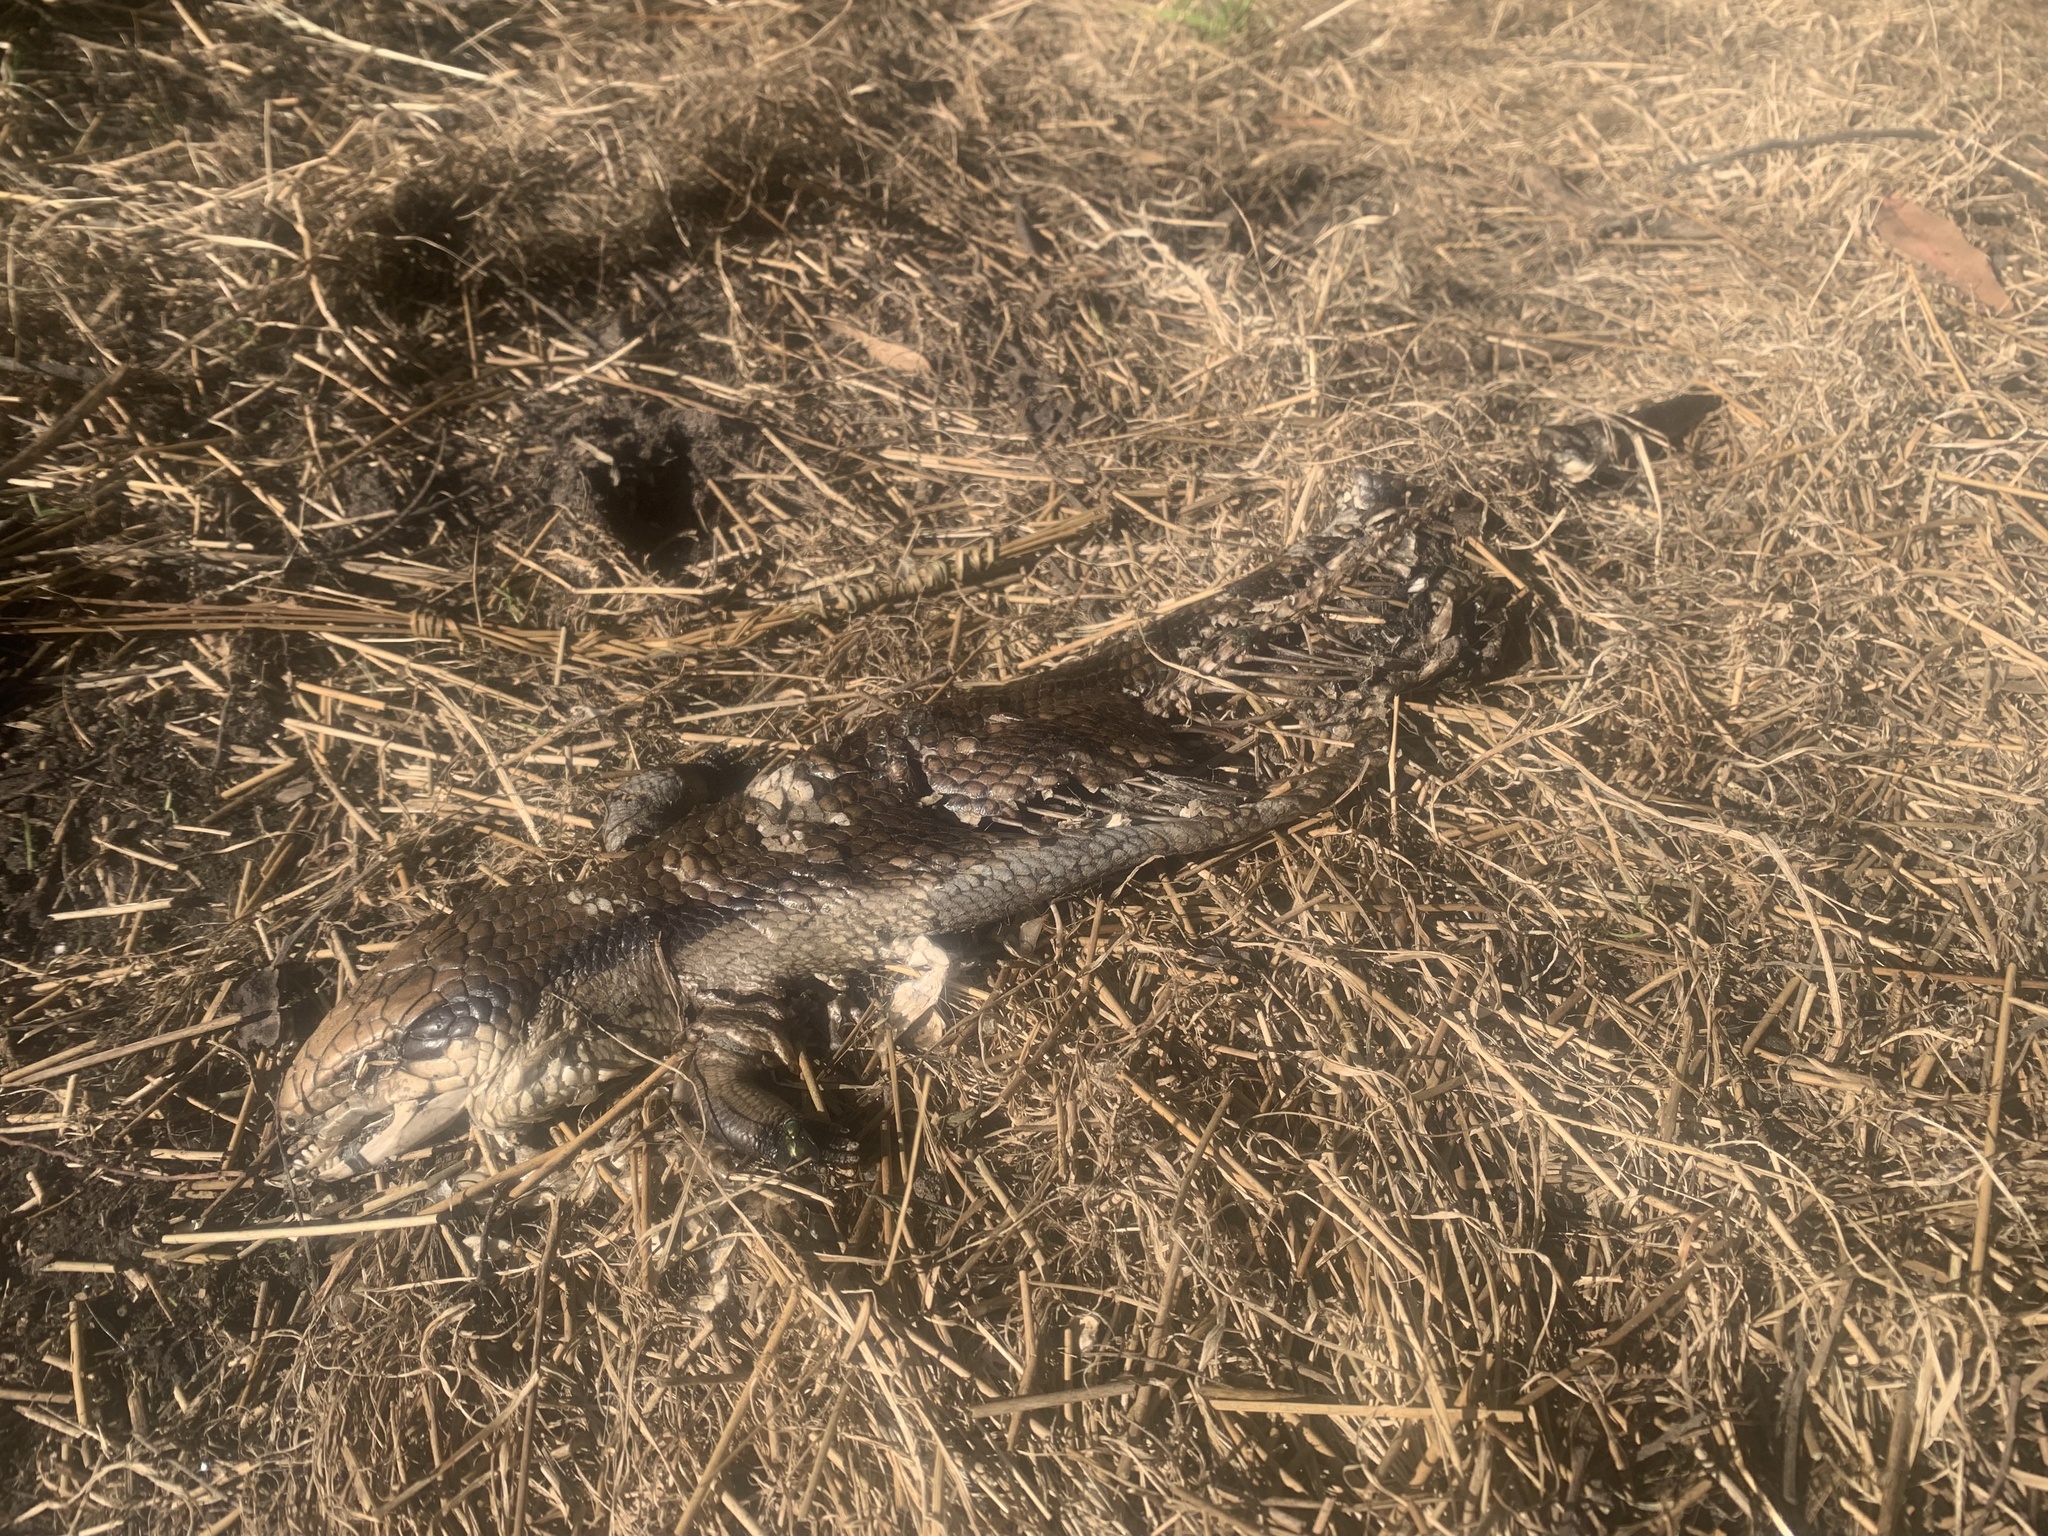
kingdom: Animalia
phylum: Chordata
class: Squamata
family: Scincidae
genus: Tiliqua
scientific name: Tiliqua scincoides
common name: Common bluetongue
